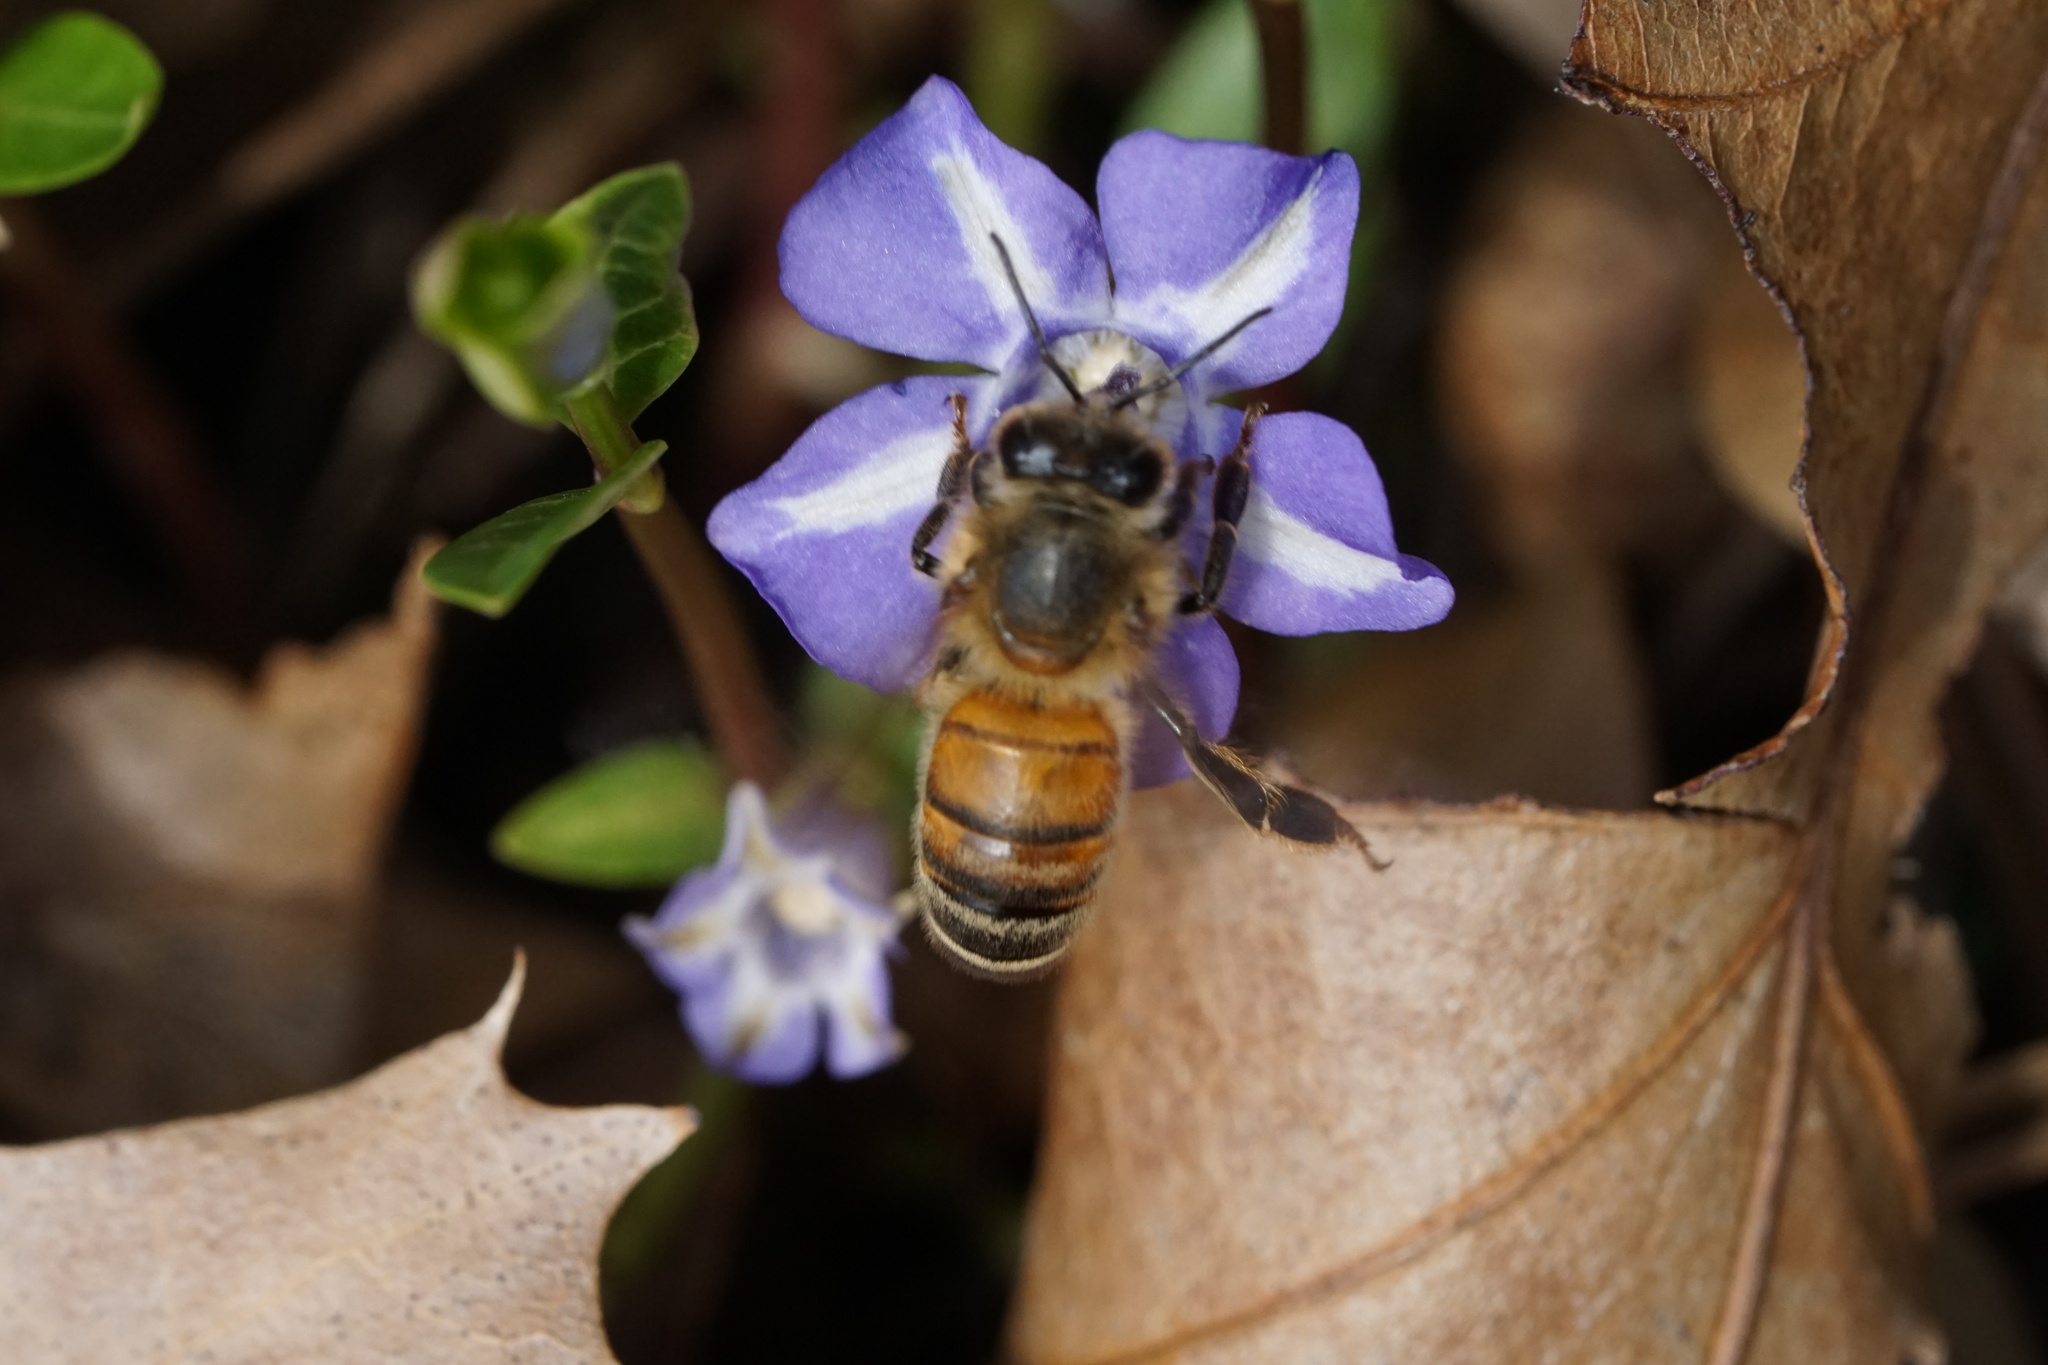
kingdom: Animalia
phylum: Arthropoda
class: Insecta
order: Hymenoptera
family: Apidae
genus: Apis
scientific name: Apis mellifera
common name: Honey bee
